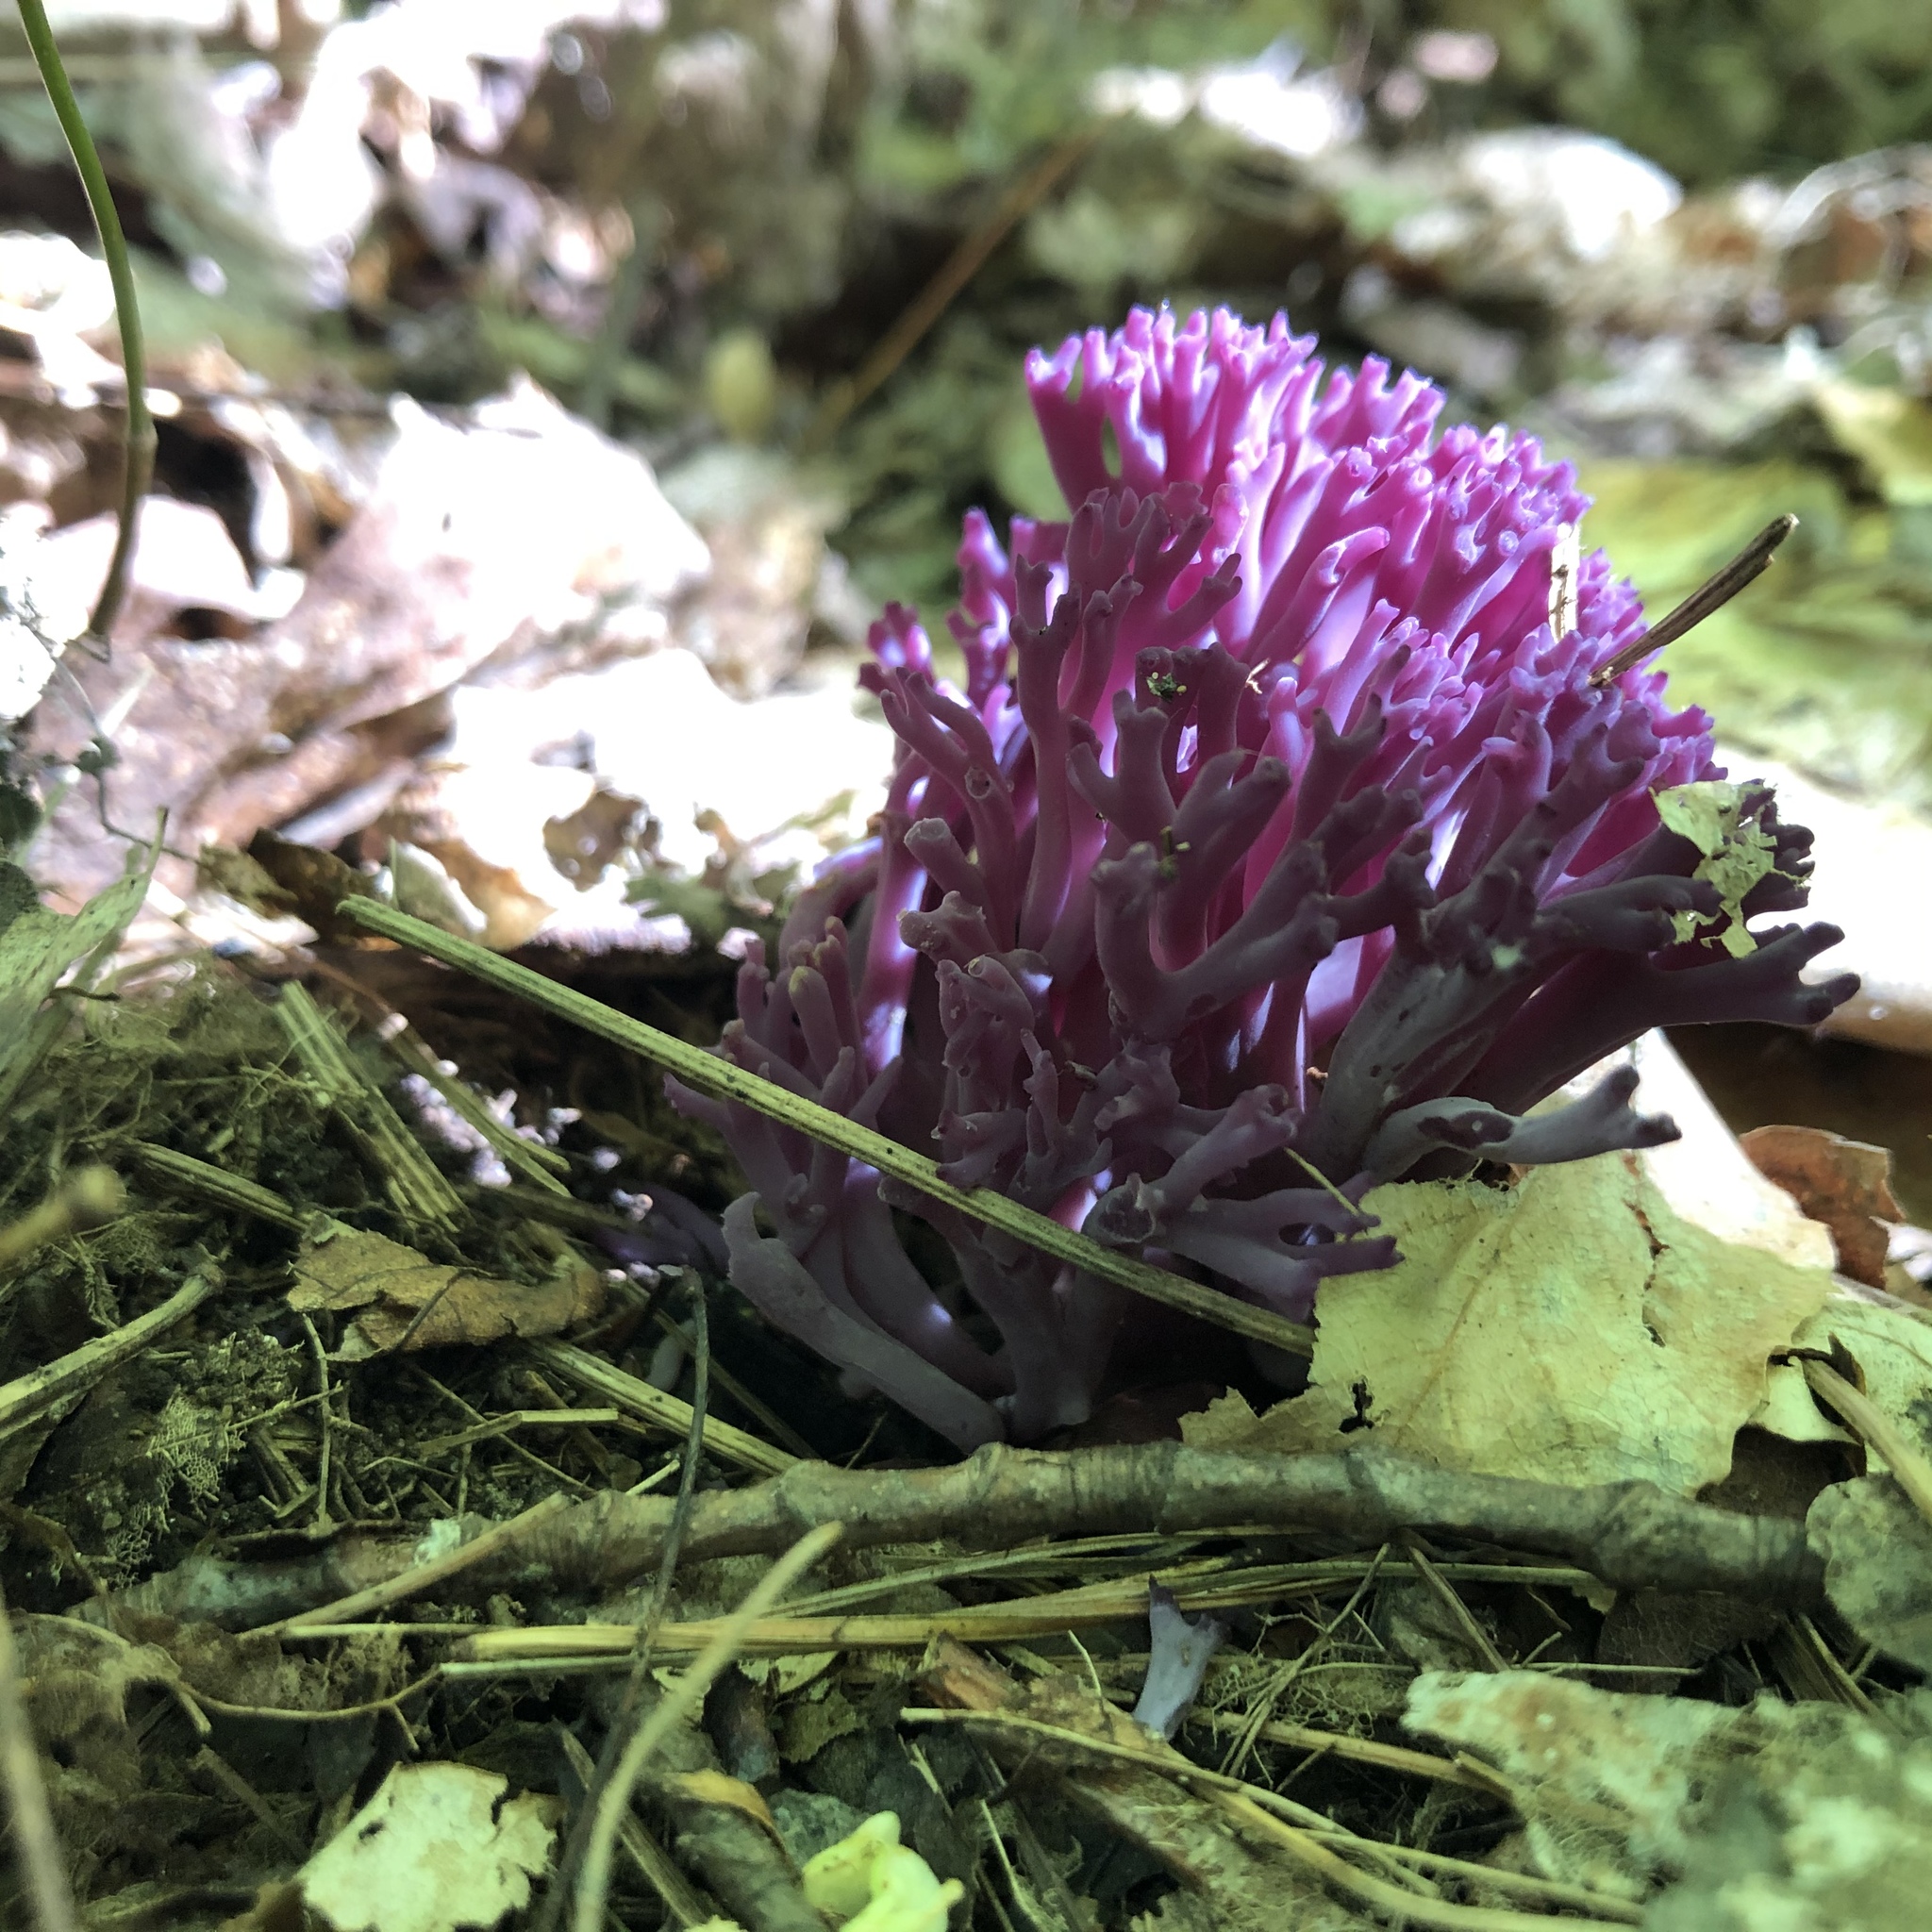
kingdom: Fungi
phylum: Basidiomycota
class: Agaricomycetes
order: Agaricales
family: Clavariaceae
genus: Clavaria
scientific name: Clavaria zollingeri
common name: Violet coral
